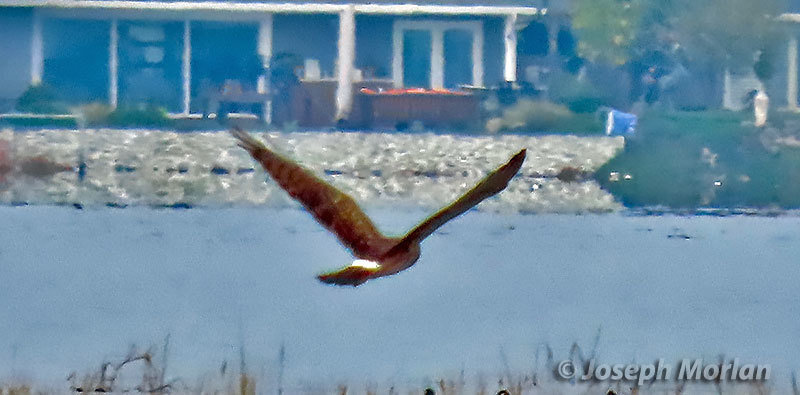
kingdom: Animalia
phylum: Chordata
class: Aves
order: Accipitriformes
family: Accipitridae
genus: Circus
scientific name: Circus cyaneus
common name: Hen harrier
